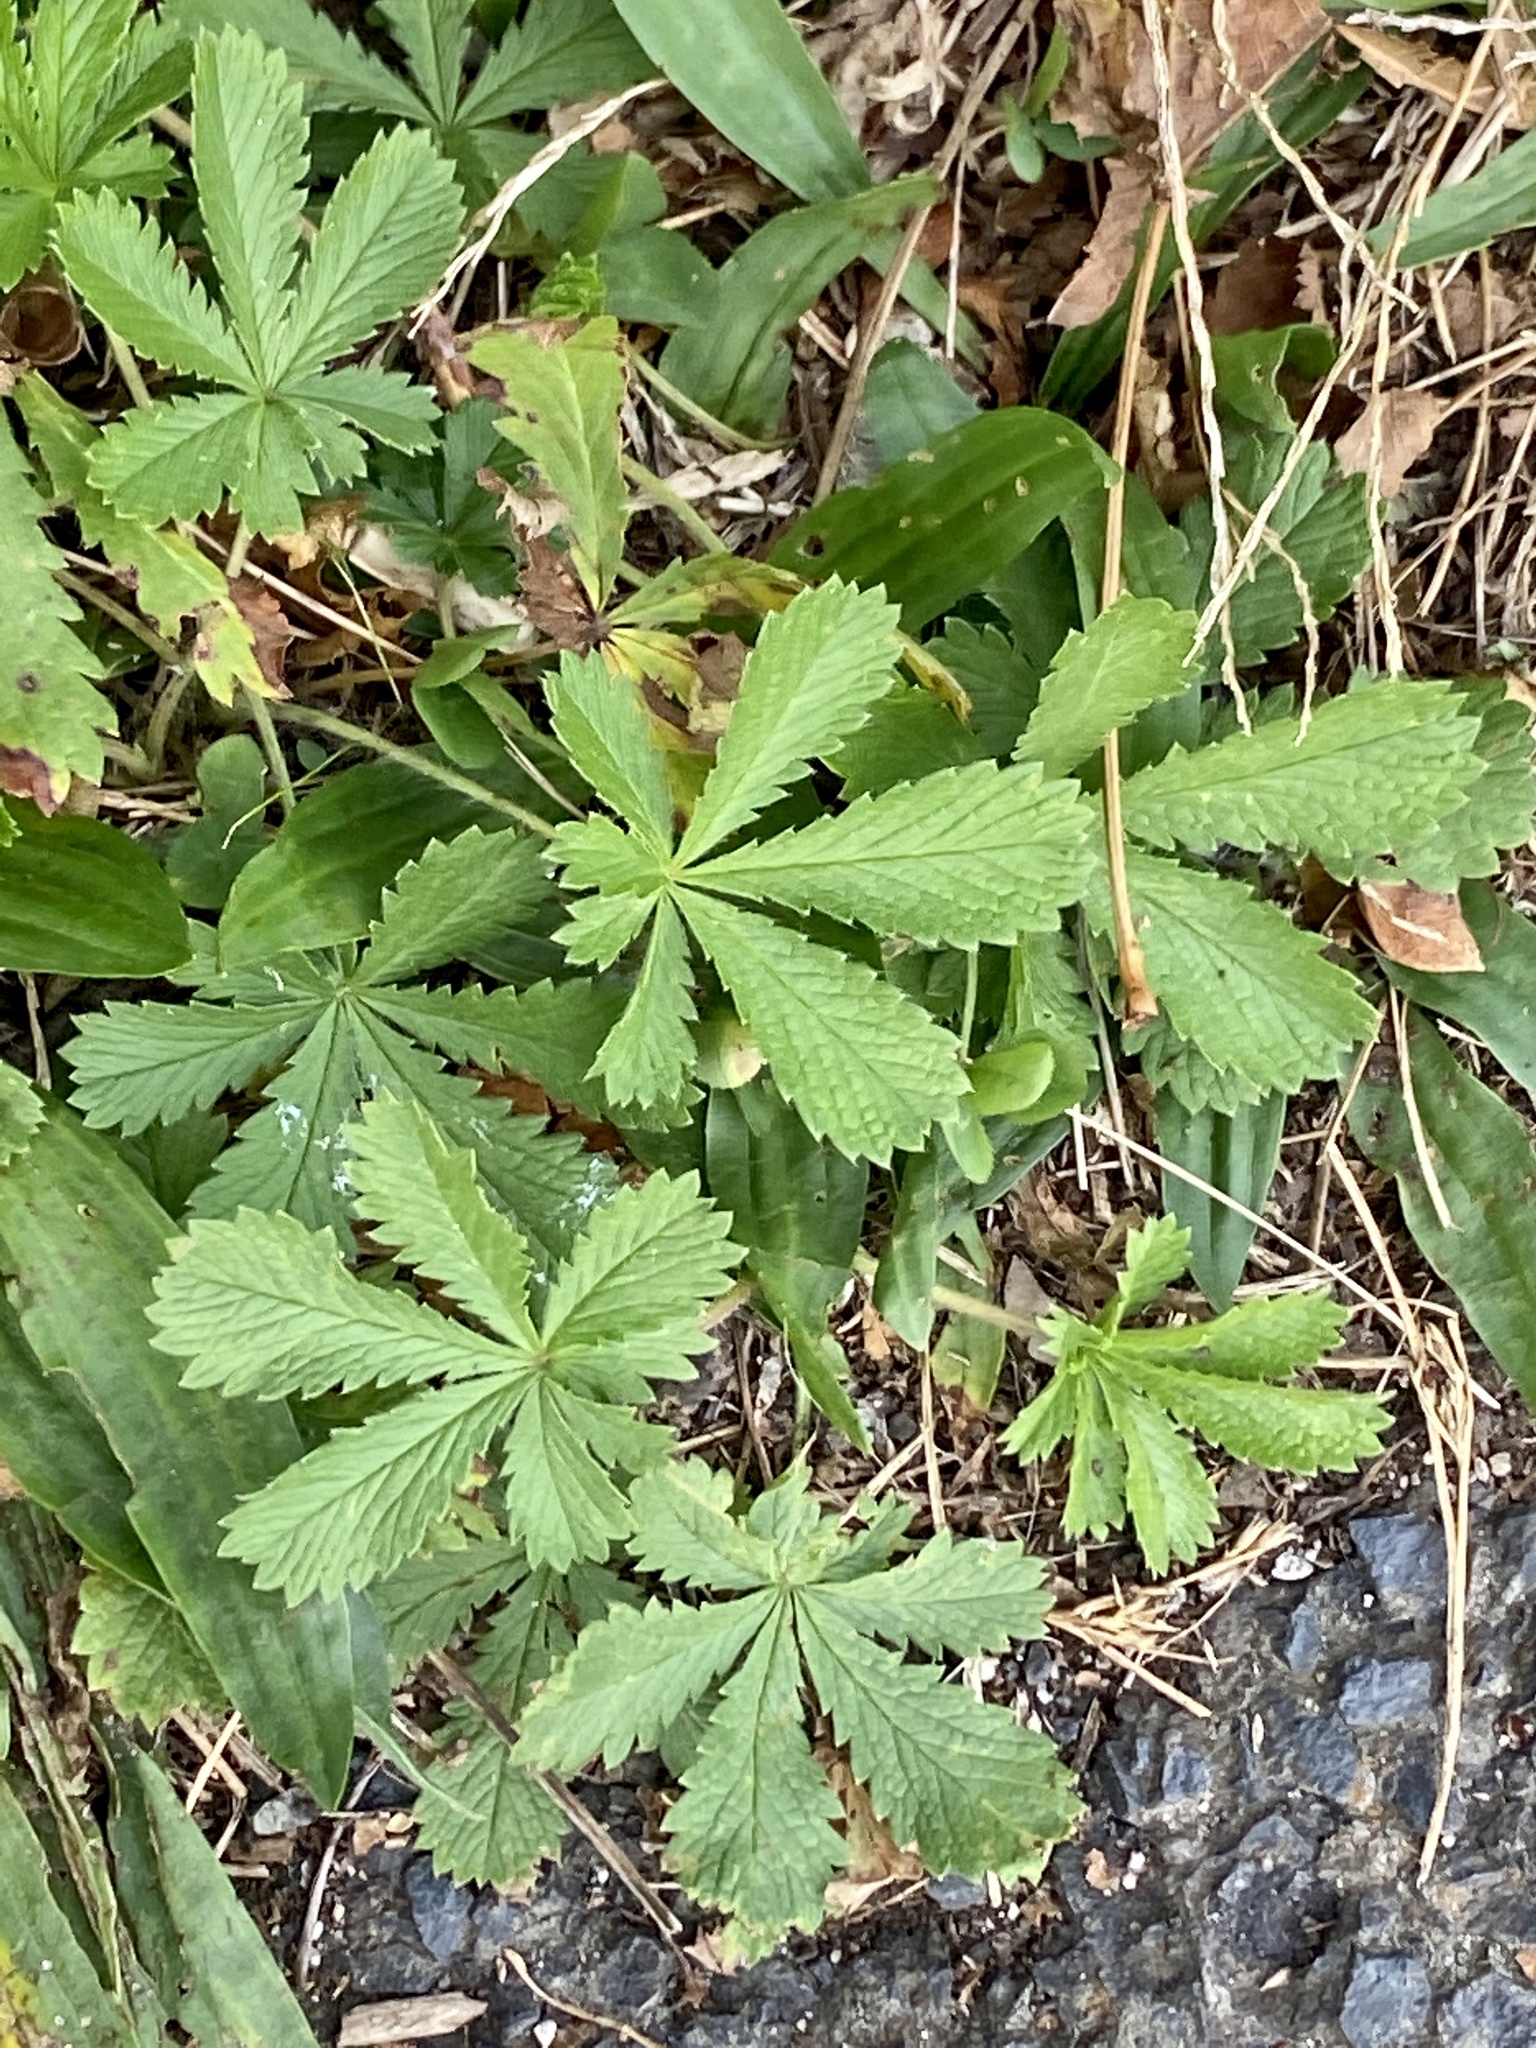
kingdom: Plantae
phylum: Tracheophyta
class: Magnoliopsida
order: Rosales
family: Rosaceae
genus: Potentilla
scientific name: Potentilla recta
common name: Sulphur cinquefoil
